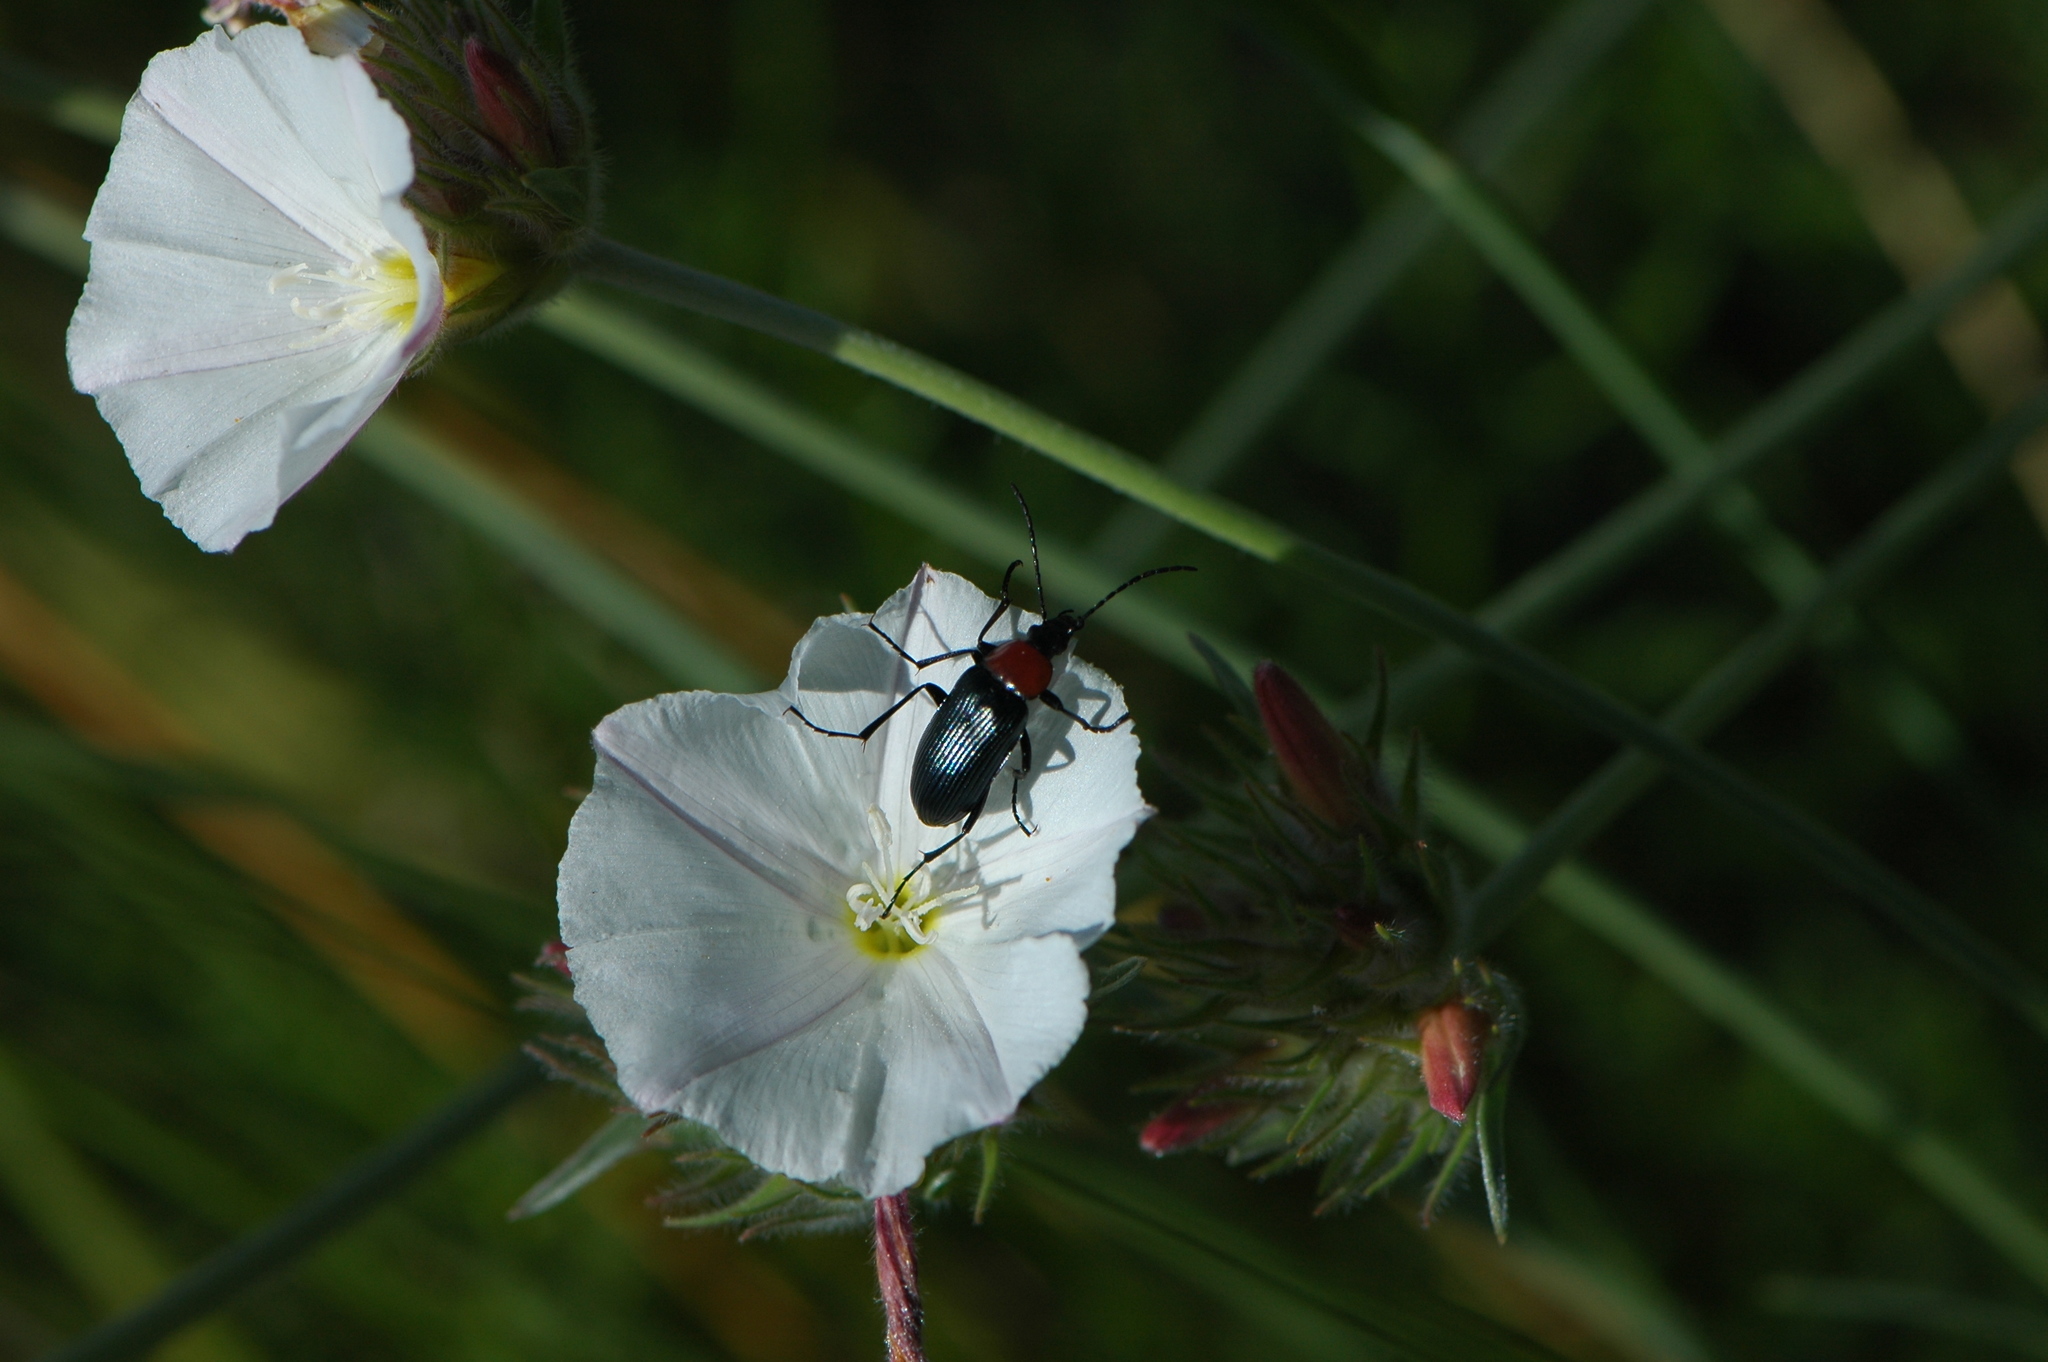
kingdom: Animalia
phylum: Arthropoda
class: Insecta
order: Coleoptera
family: Tenebrionidae
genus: Heliotaurus
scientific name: Heliotaurus ruficollis
